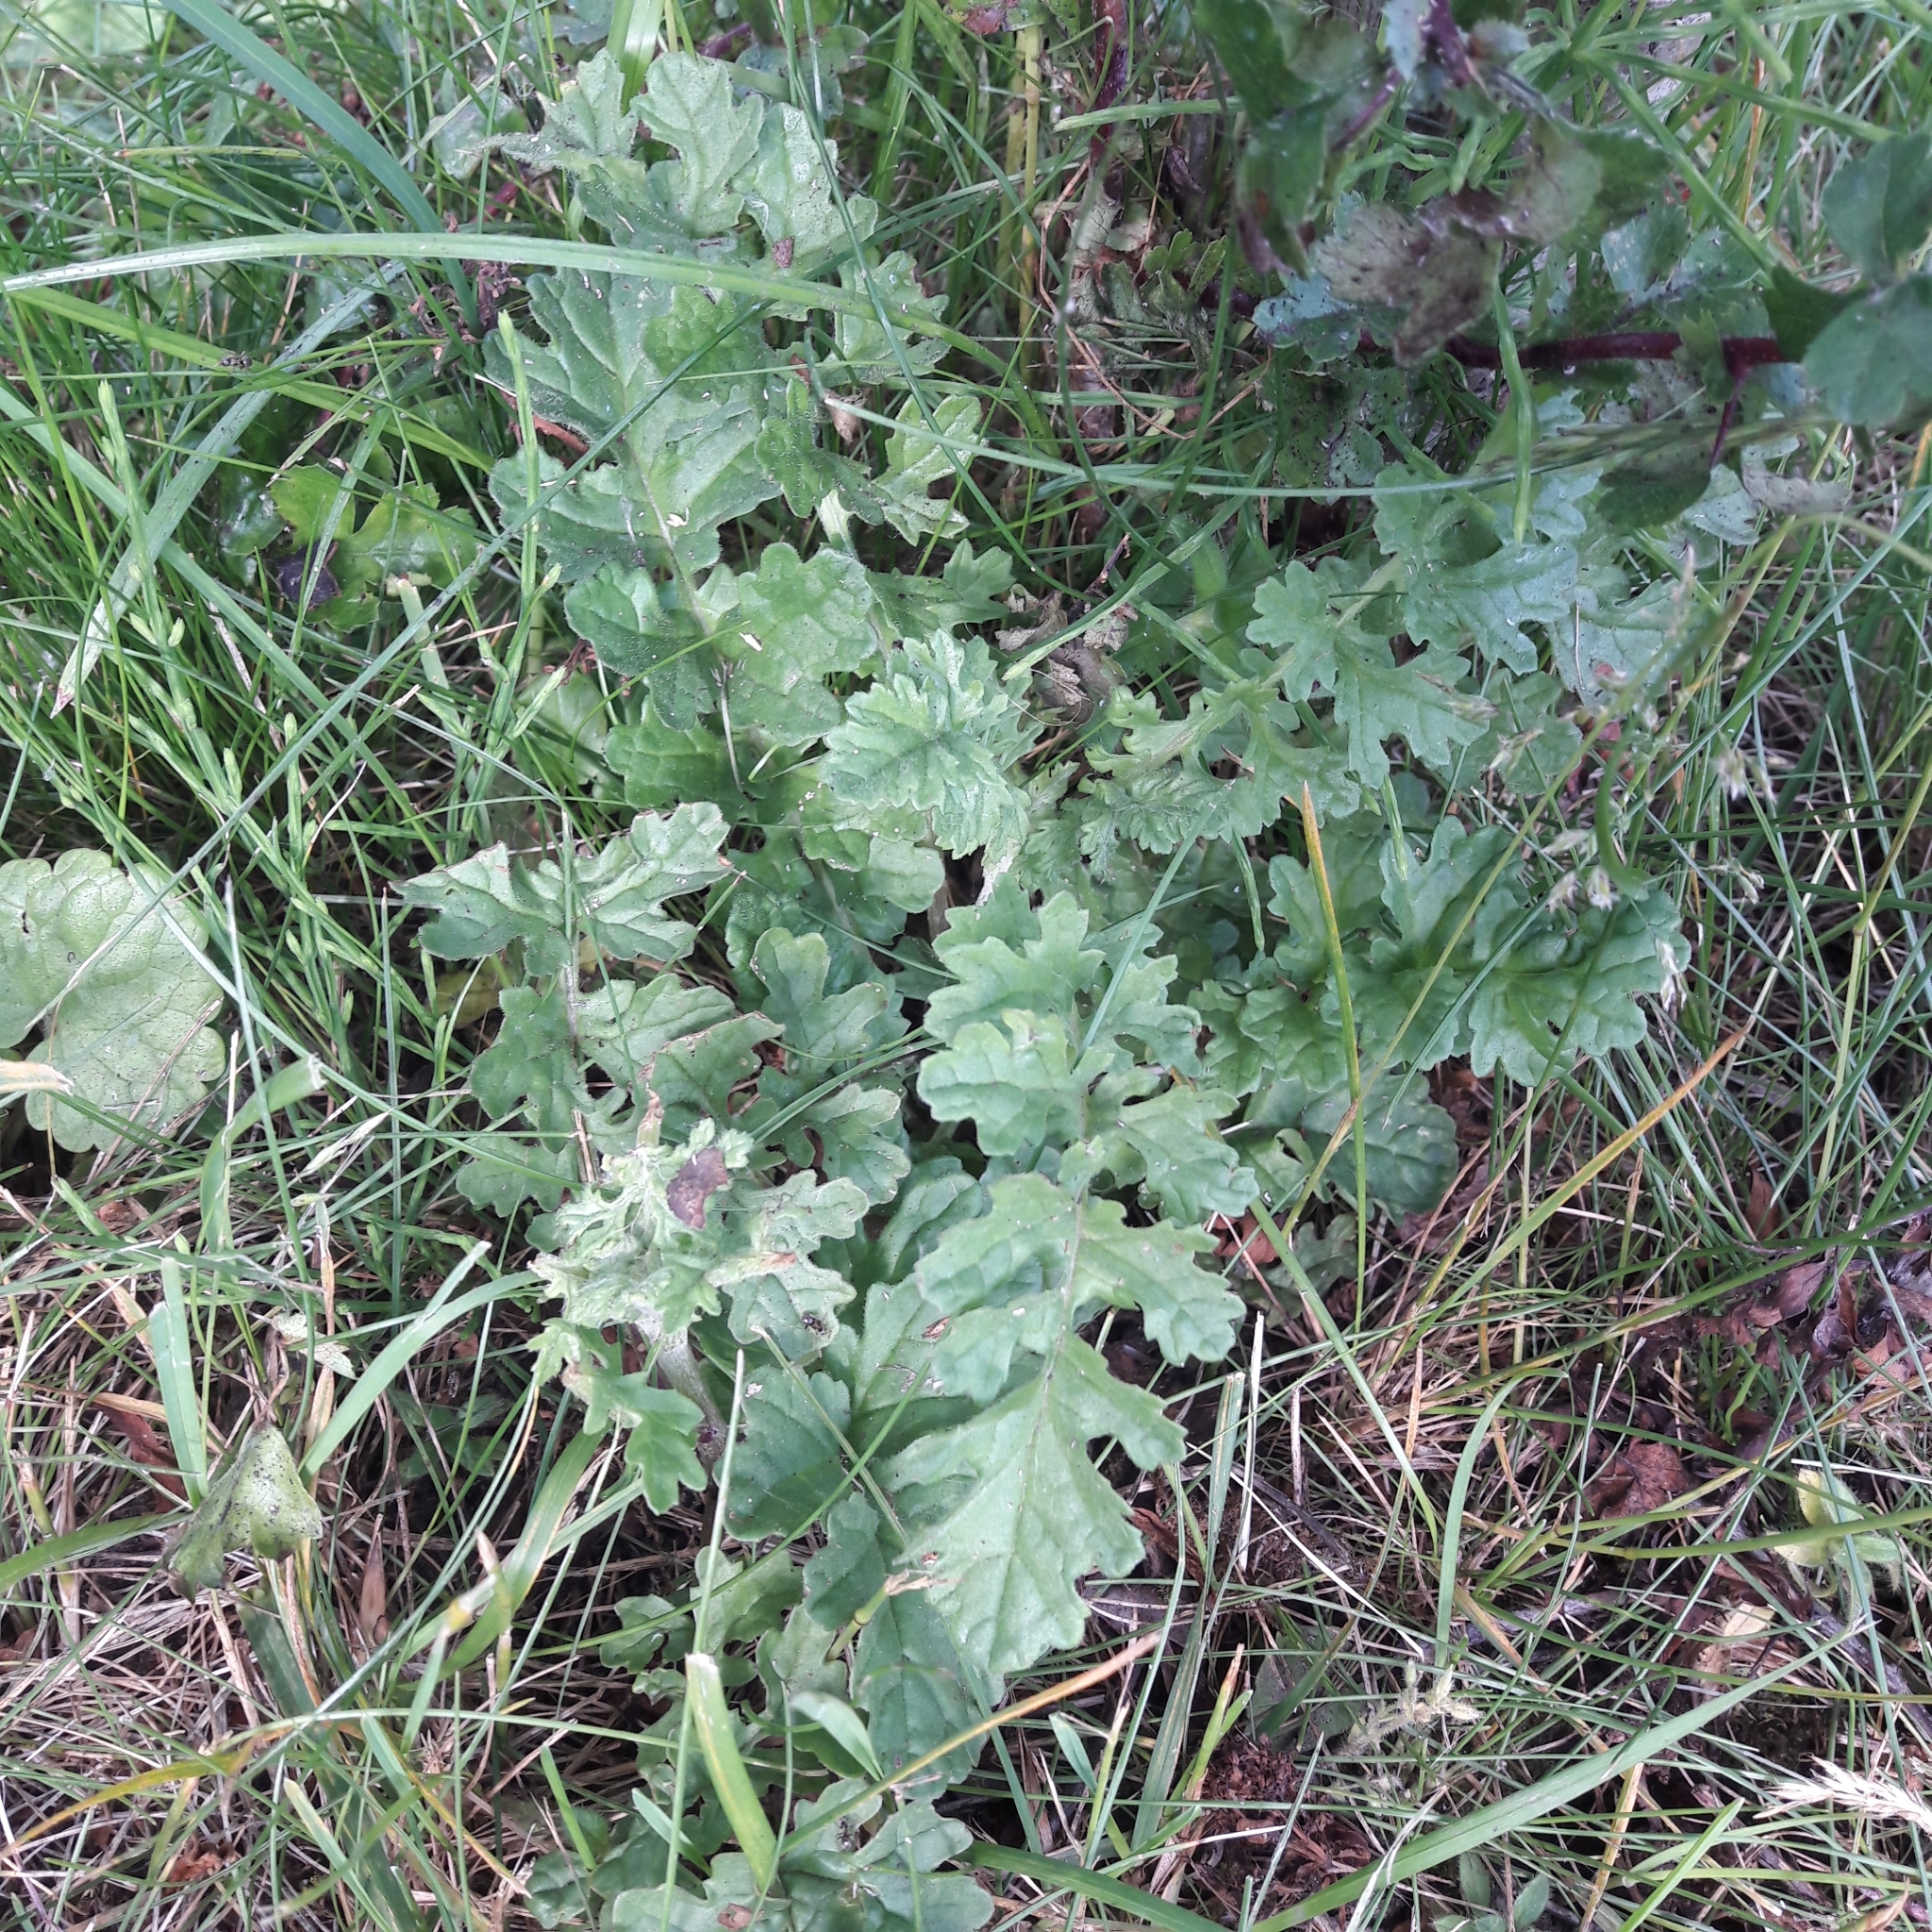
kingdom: Plantae
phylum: Tracheophyta
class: Magnoliopsida
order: Asterales
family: Asteraceae
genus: Jacobaea
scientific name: Jacobaea vulgaris
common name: Stinking willie
